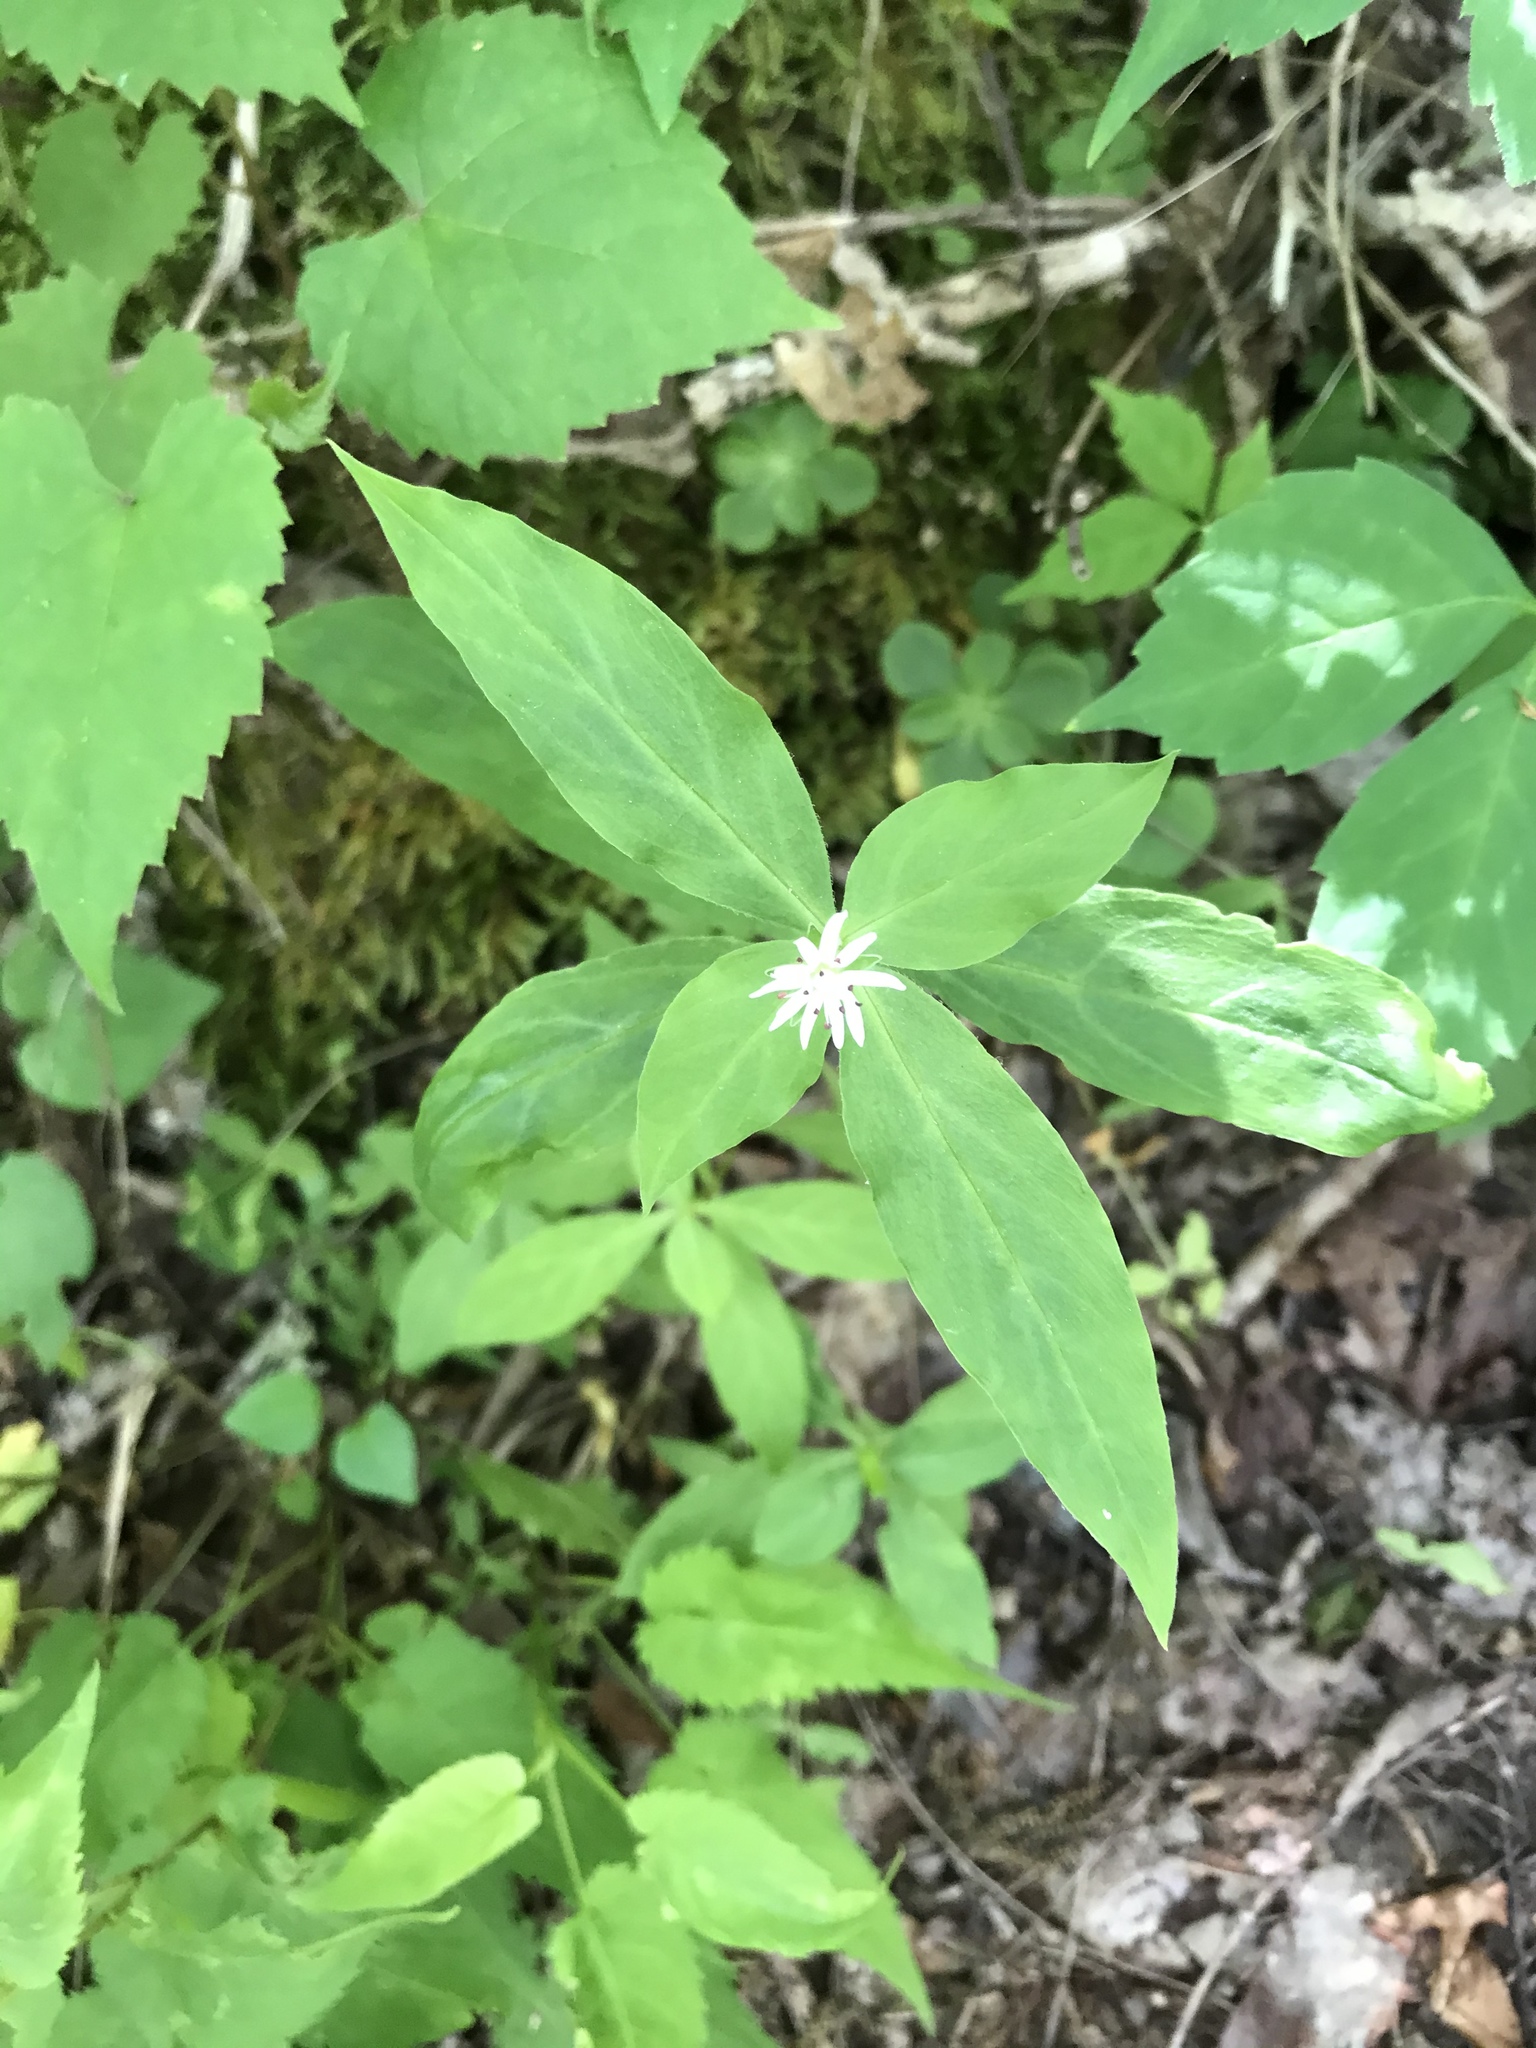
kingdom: Plantae
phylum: Tracheophyta
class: Magnoliopsida
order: Caryophyllales
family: Caryophyllaceae
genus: Stellaria
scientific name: Stellaria pubera
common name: Star chickweed
